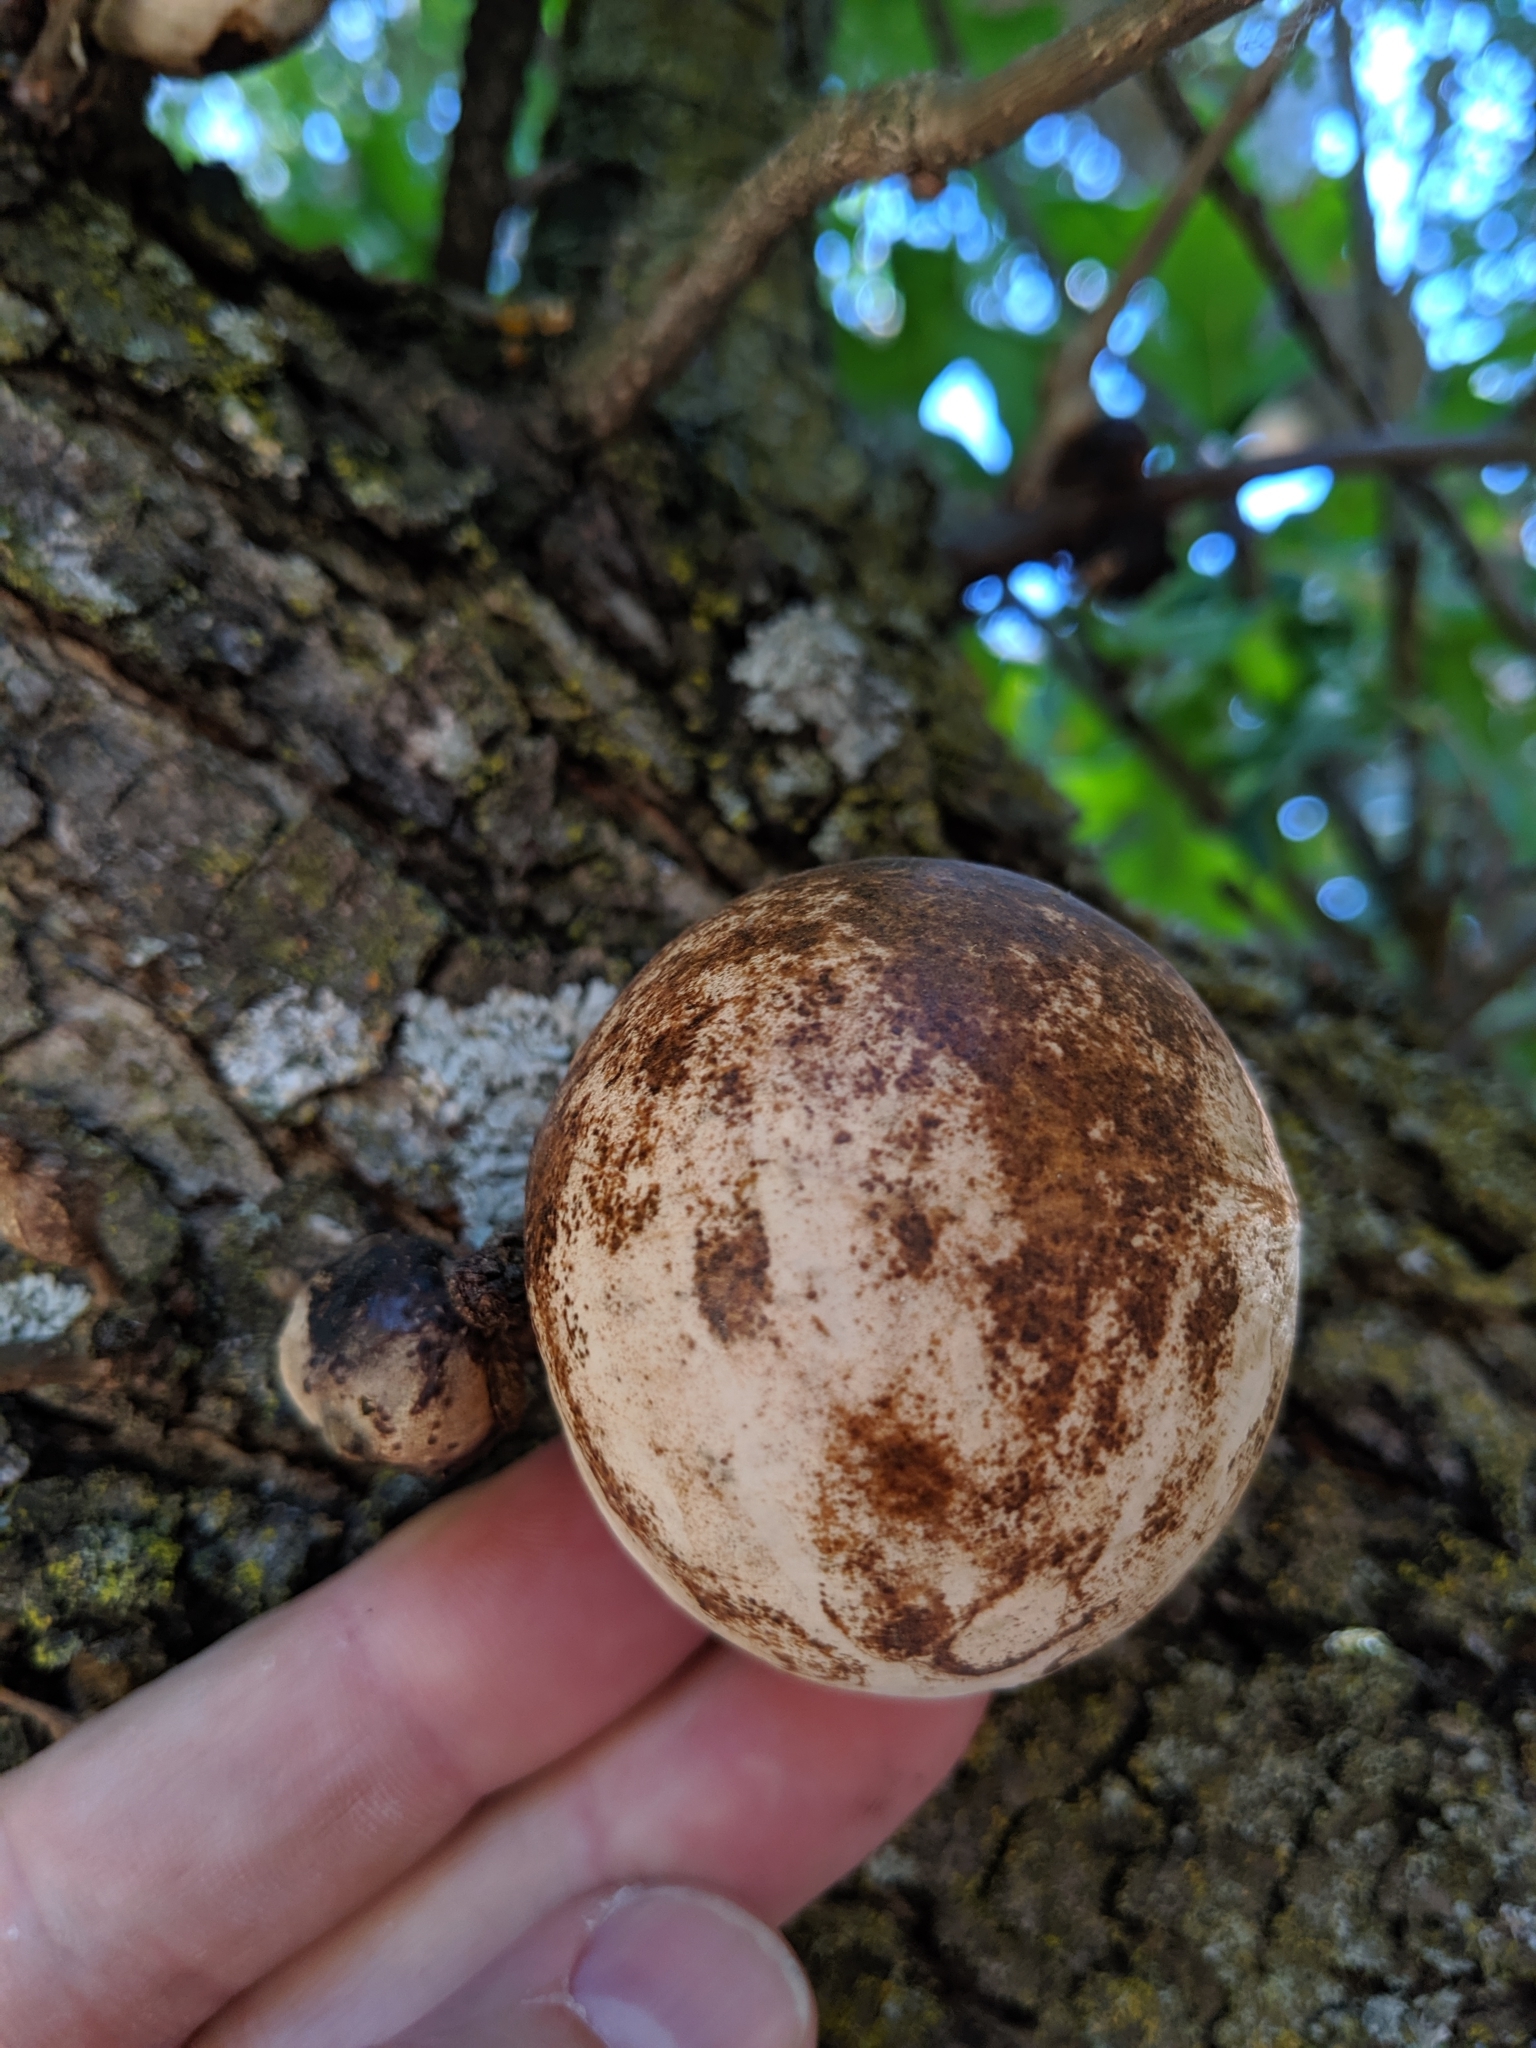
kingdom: Animalia
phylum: Arthropoda
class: Insecta
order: Hymenoptera
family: Cynipidae
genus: Andricus
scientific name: Andricus quercuscalifornicus
